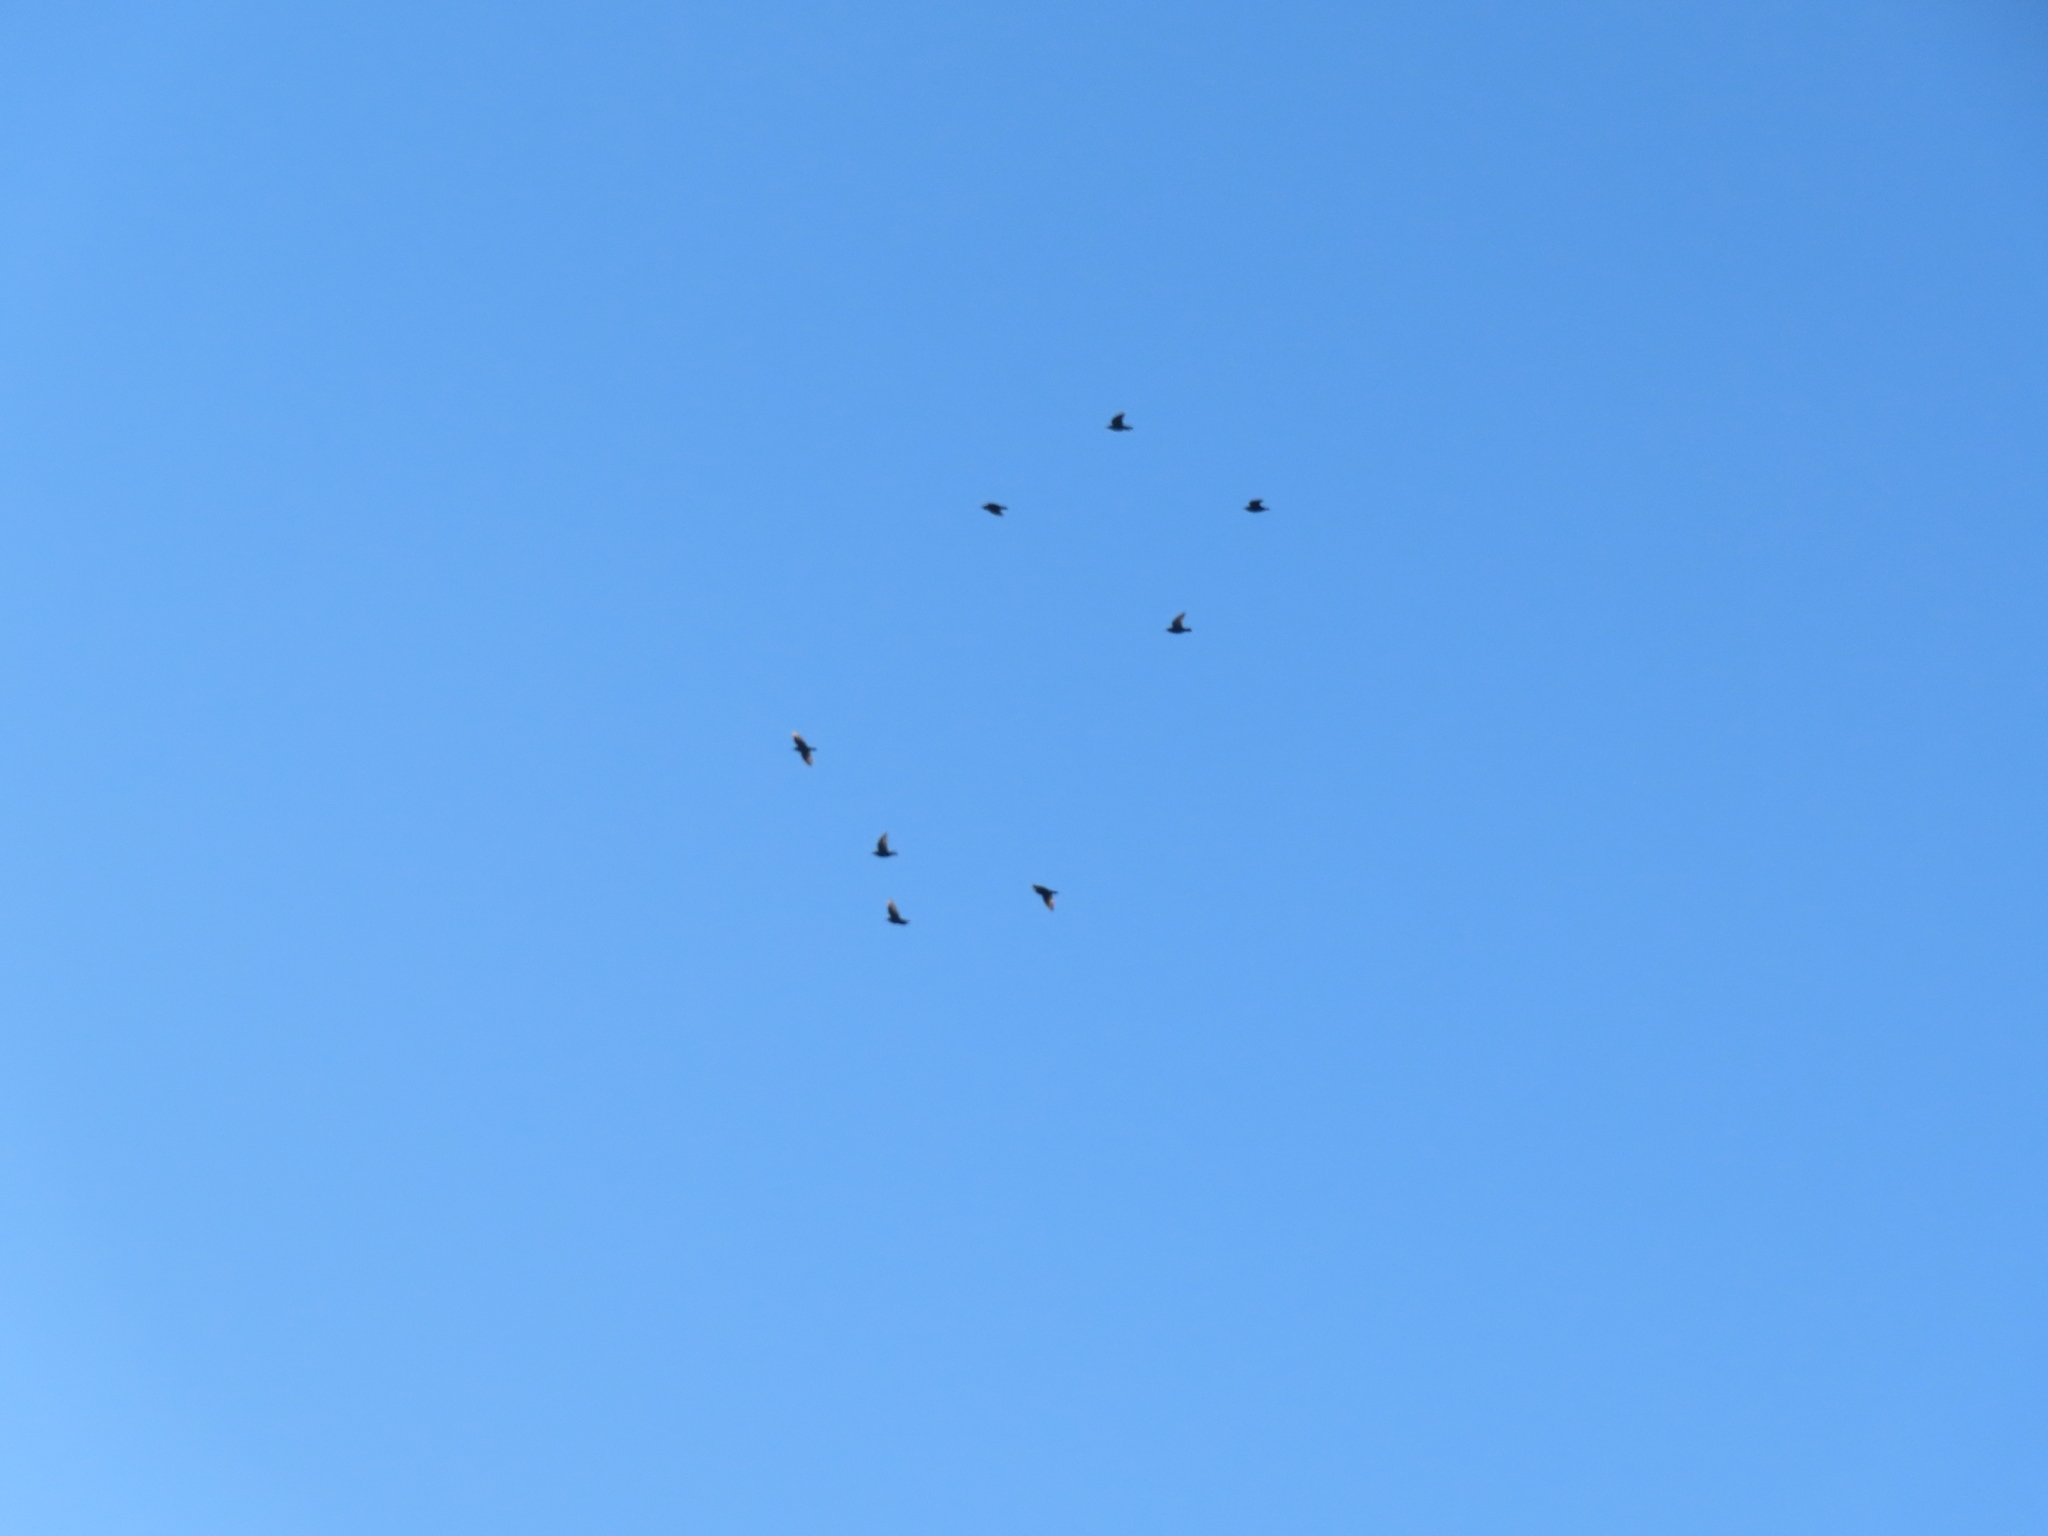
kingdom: Animalia
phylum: Chordata
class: Aves
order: Passeriformes
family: Sturnidae
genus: Sturnus
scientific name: Sturnus vulgaris
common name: Common starling
